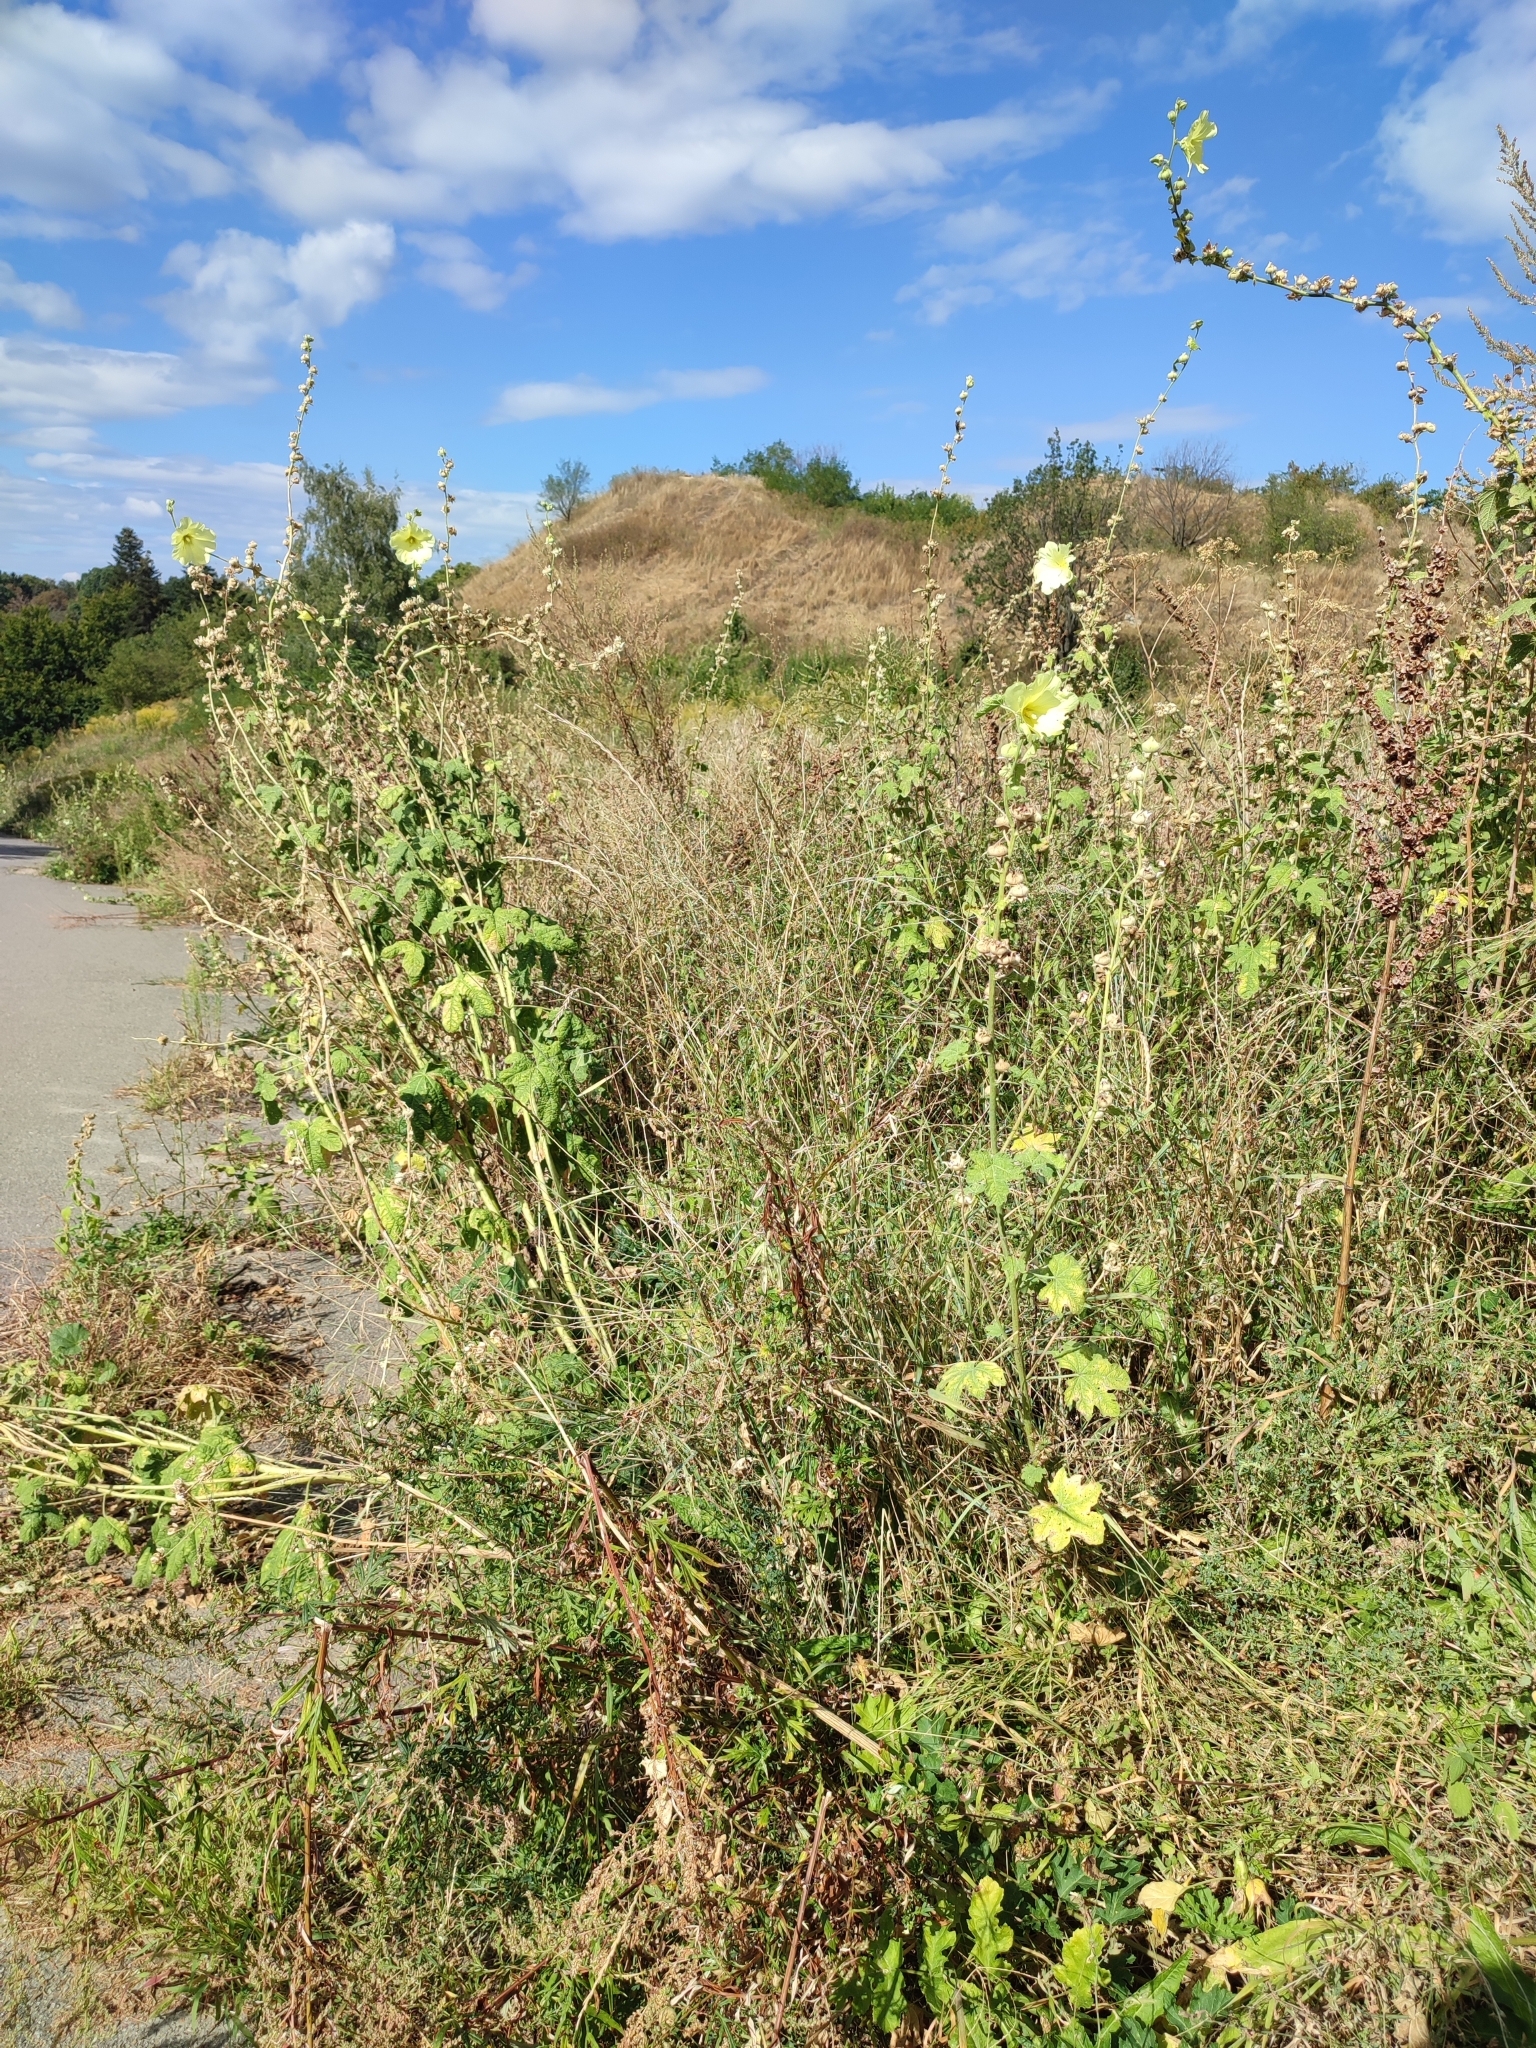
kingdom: Plantae
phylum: Tracheophyta
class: Magnoliopsida
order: Malvales
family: Malvaceae
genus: Alcea
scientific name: Alcea rugosa
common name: Russian hollyhock
